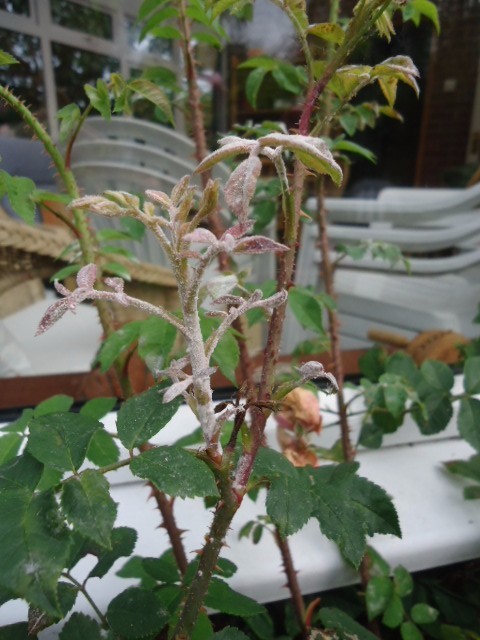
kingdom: Fungi
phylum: Ascomycota
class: Leotiomycetes
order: Helotiales
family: Erysiphaceae
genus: Podosphaera
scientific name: Podosphaera pannosa
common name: Rose mildew
